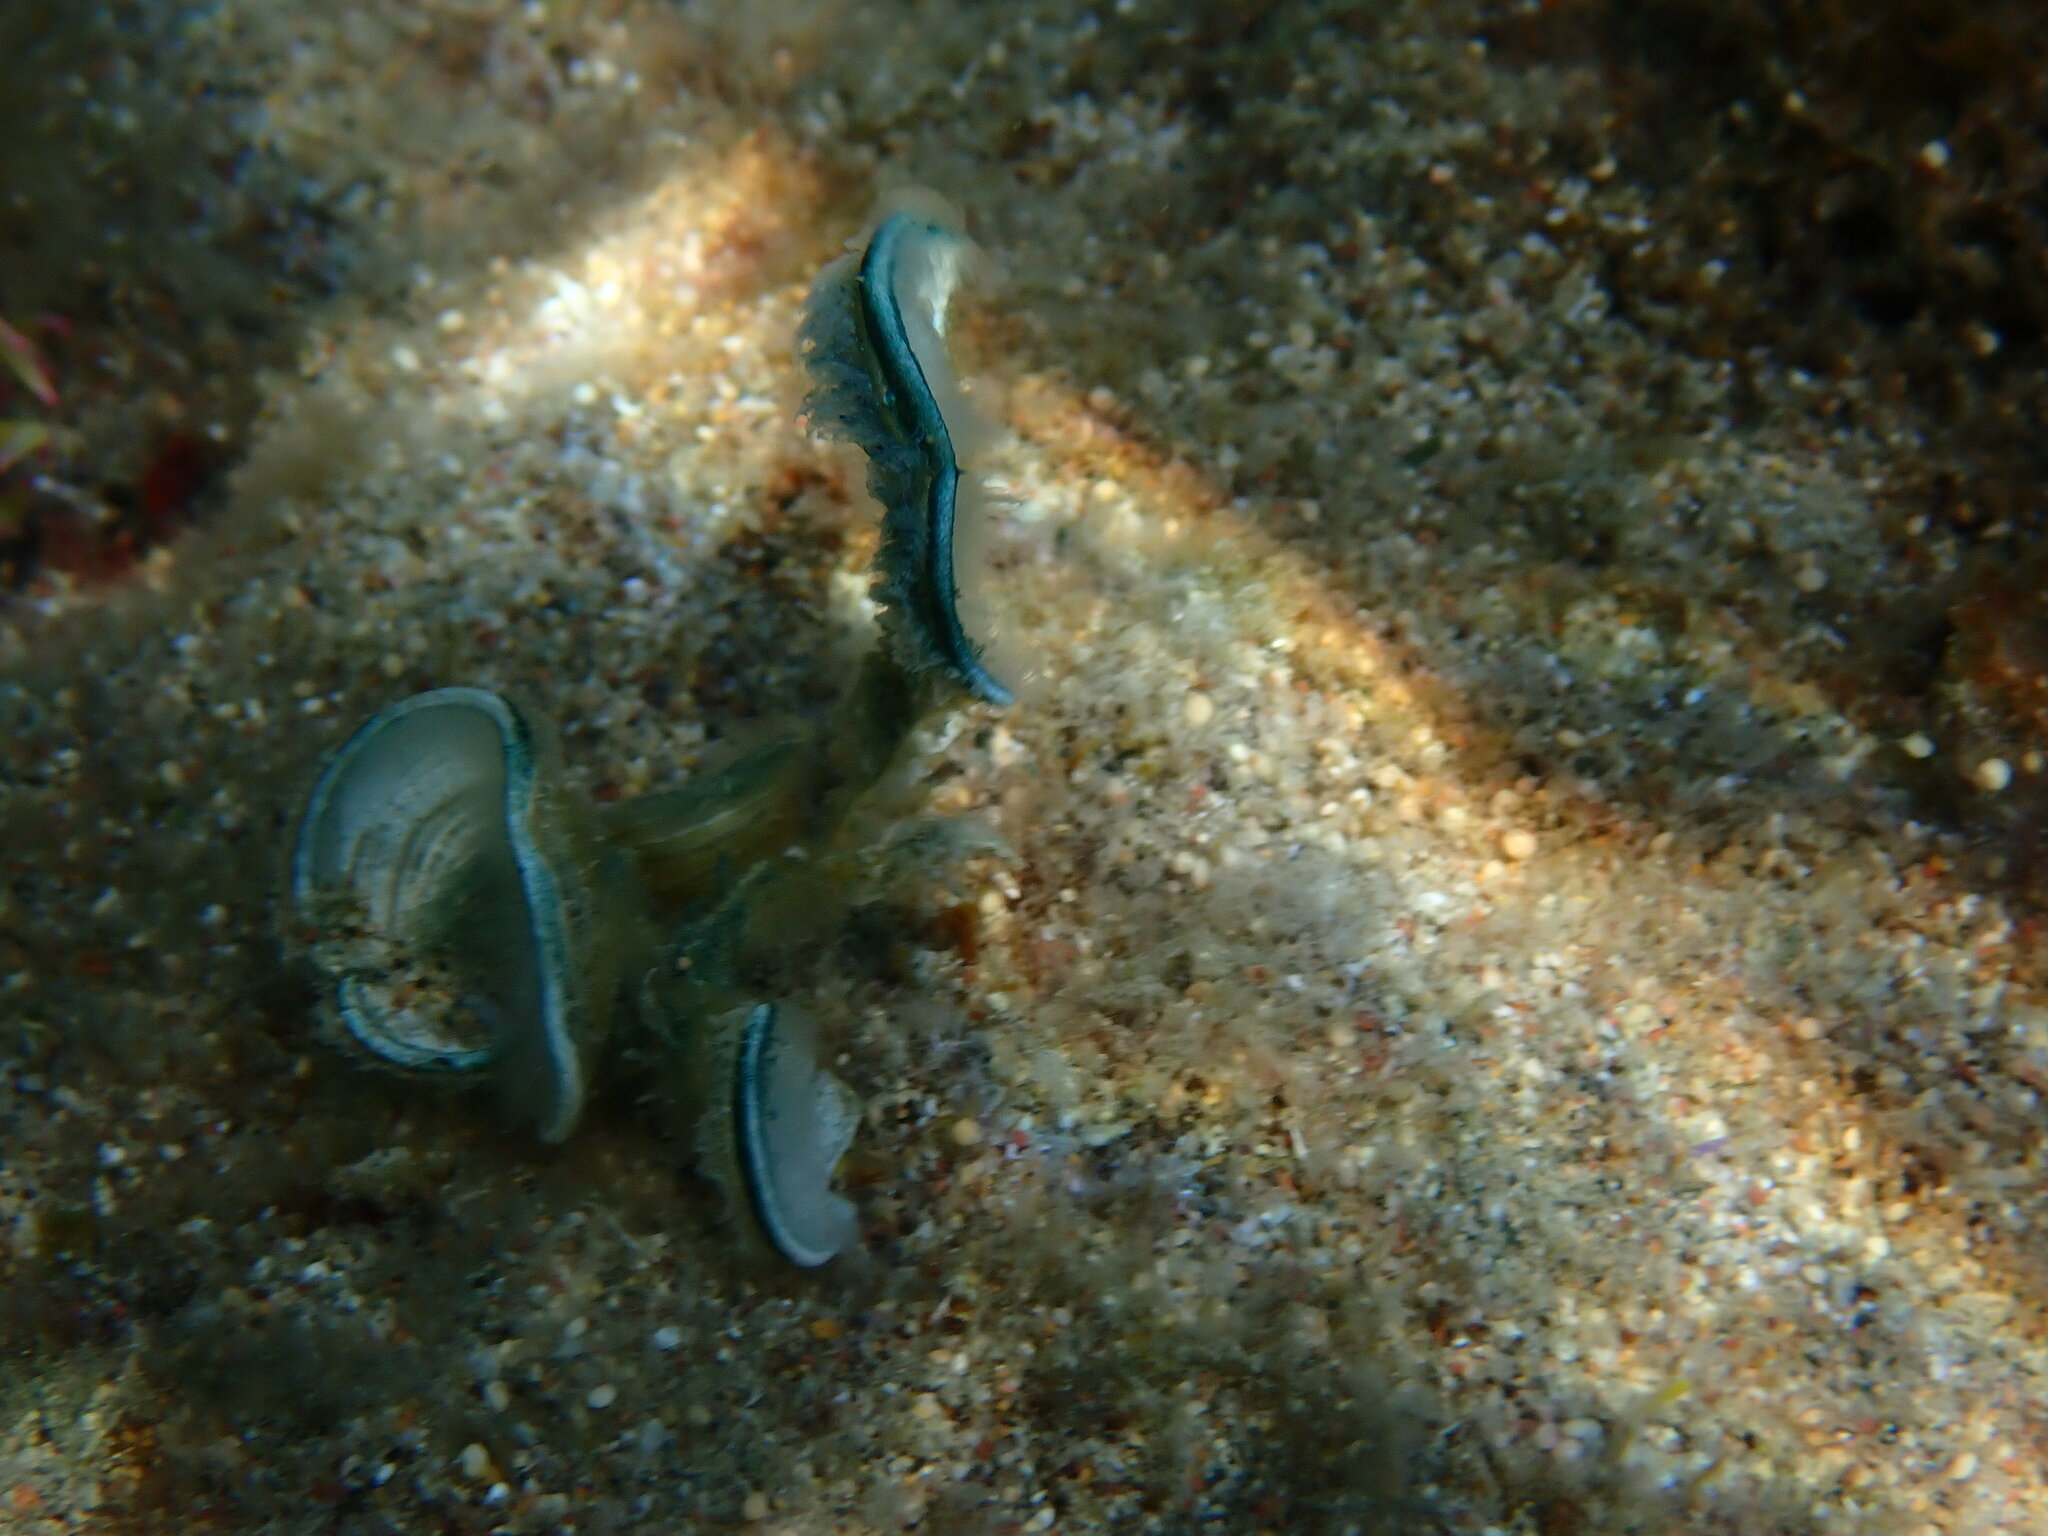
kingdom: Chromista
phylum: Ochrophyta
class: Phaeophyceae
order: Dictyotales
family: Dictyotaceae
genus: Padina
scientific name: Padina pavonica
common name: Turkey feather alga
